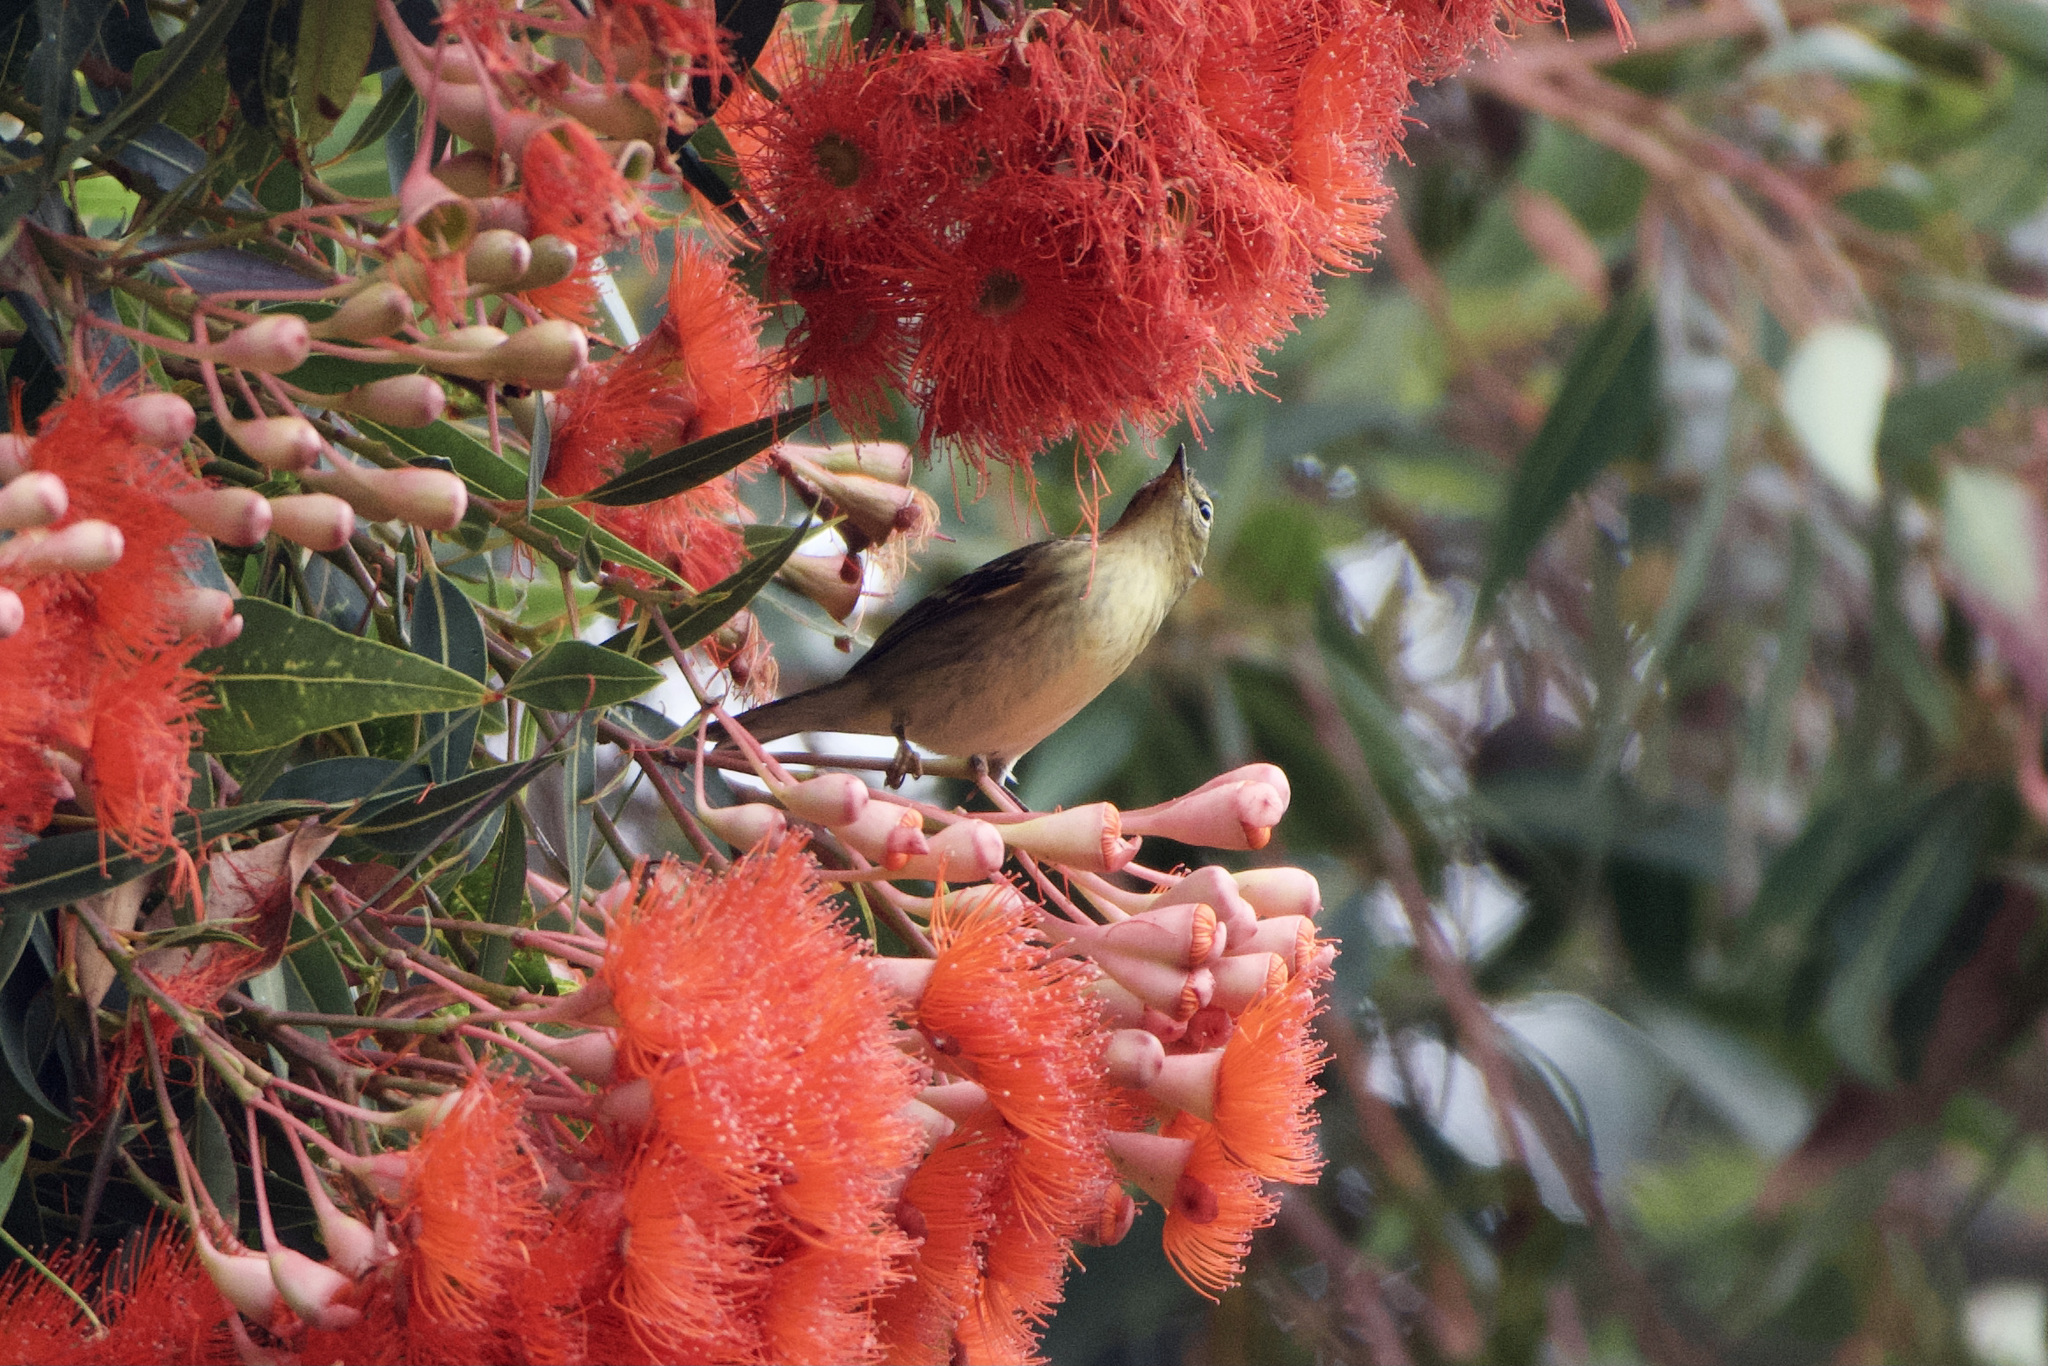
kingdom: Animalia
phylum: Chordata
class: Aves
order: Passeriformes
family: Parulidae
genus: Setophaga
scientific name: Setophaga striata
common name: Blackpoll warbler
